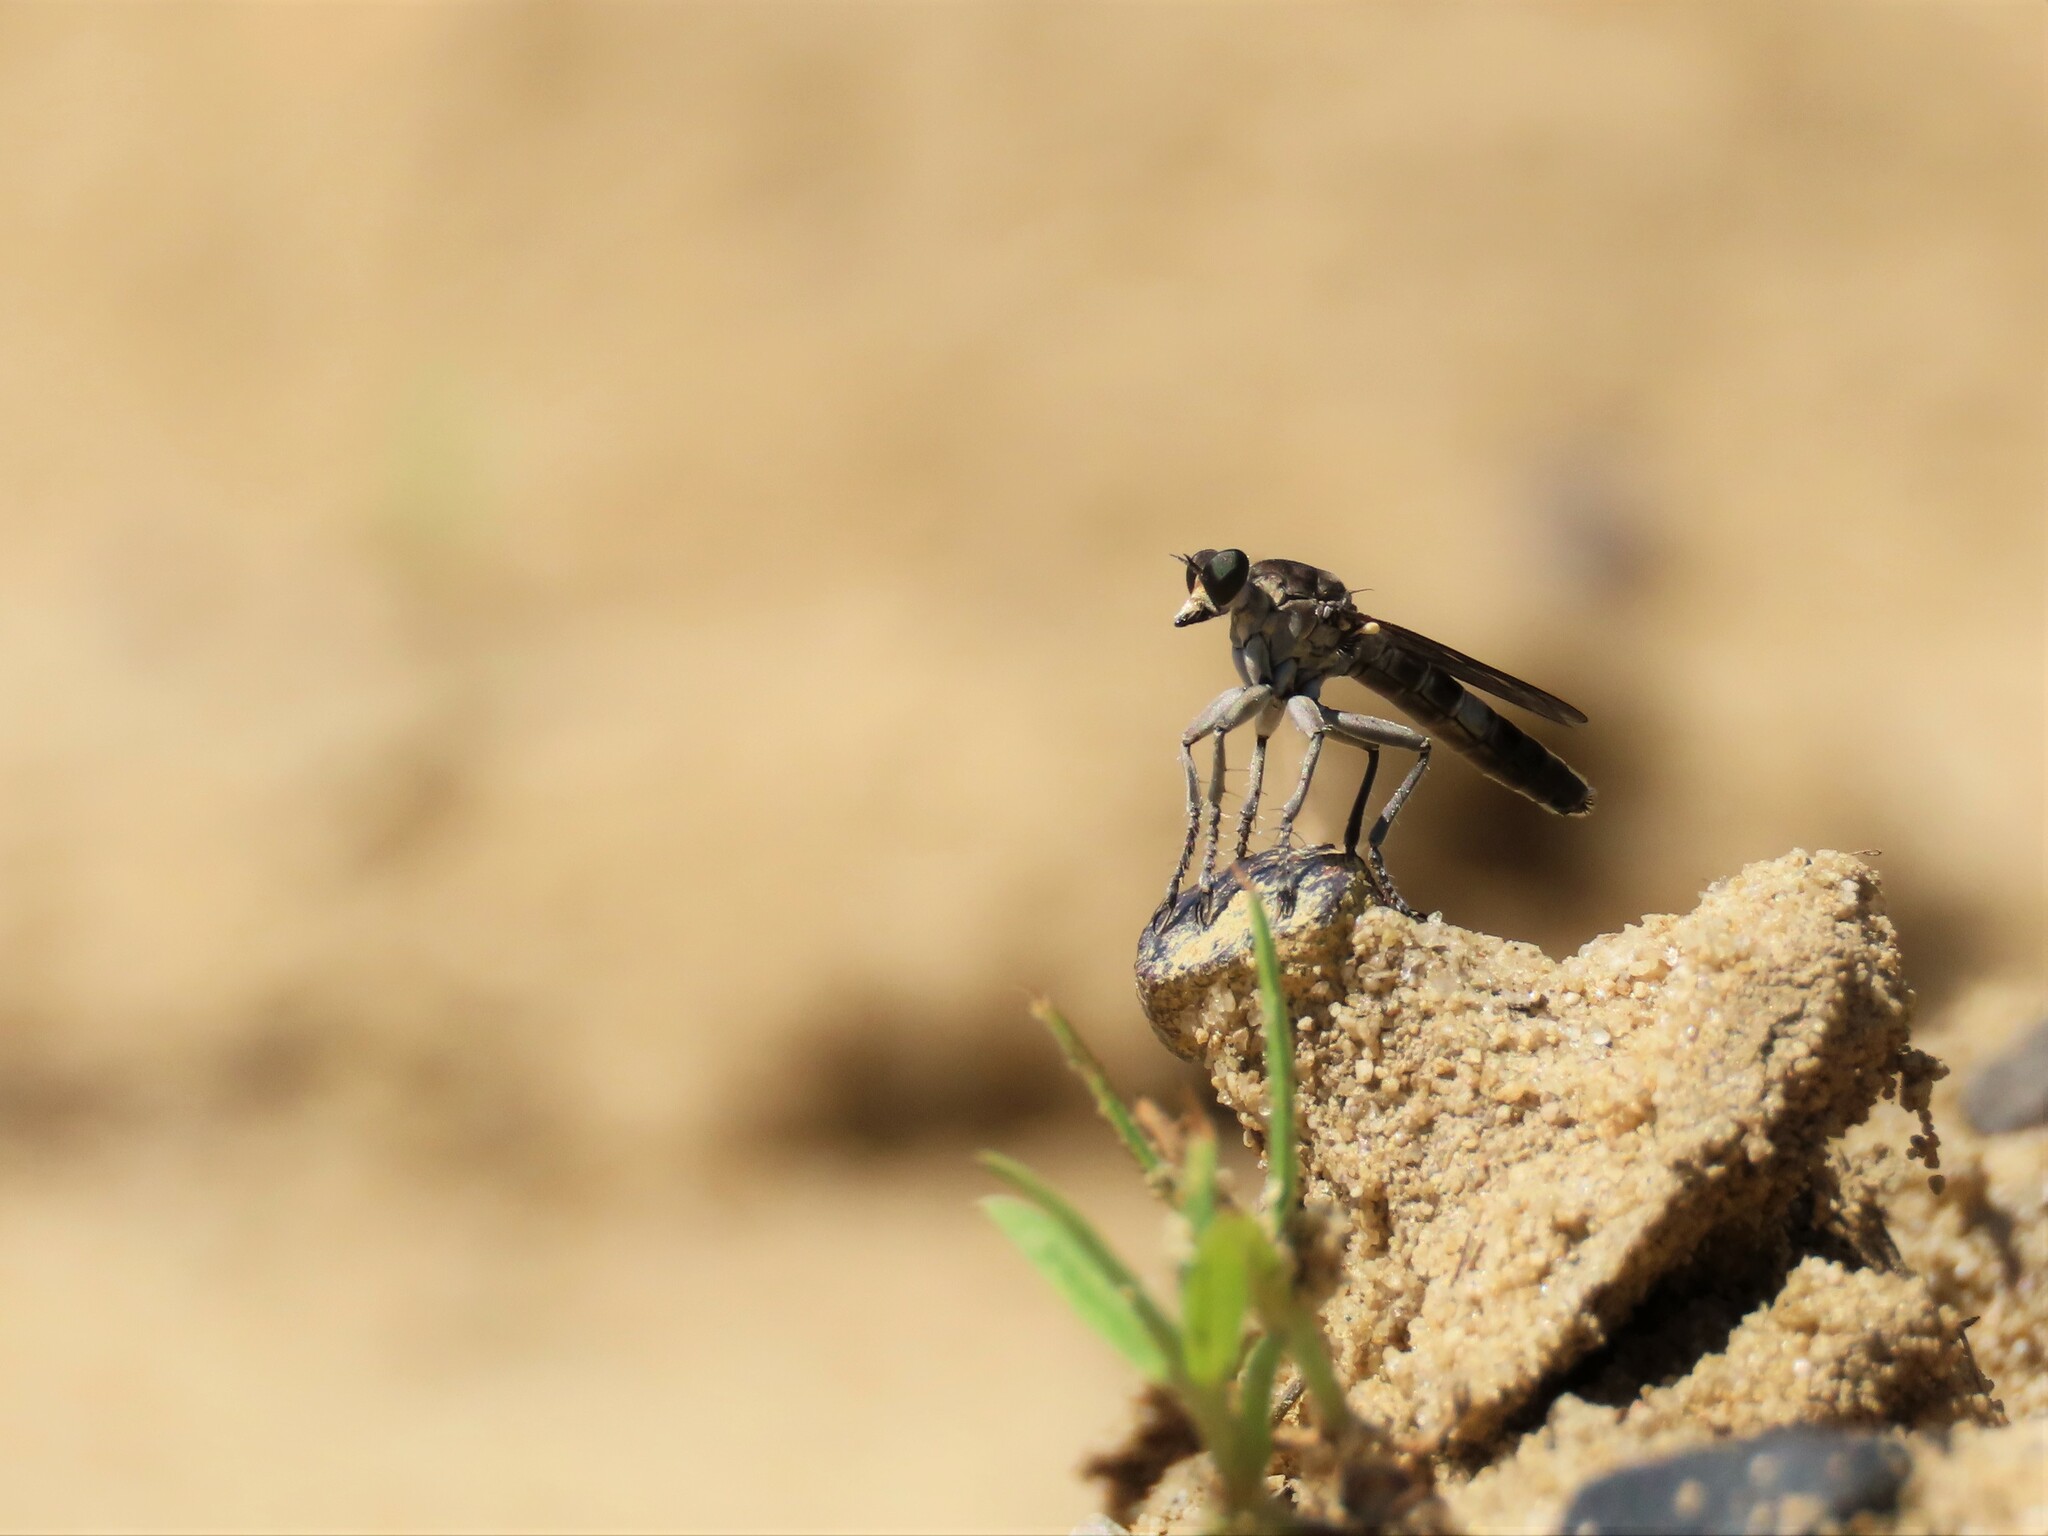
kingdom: Animalia
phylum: Arthropoda
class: Insecta
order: Diptera
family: Asilidae
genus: Stichopogon
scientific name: Stichopogon trifasciatus
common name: Three-banded robber fly
